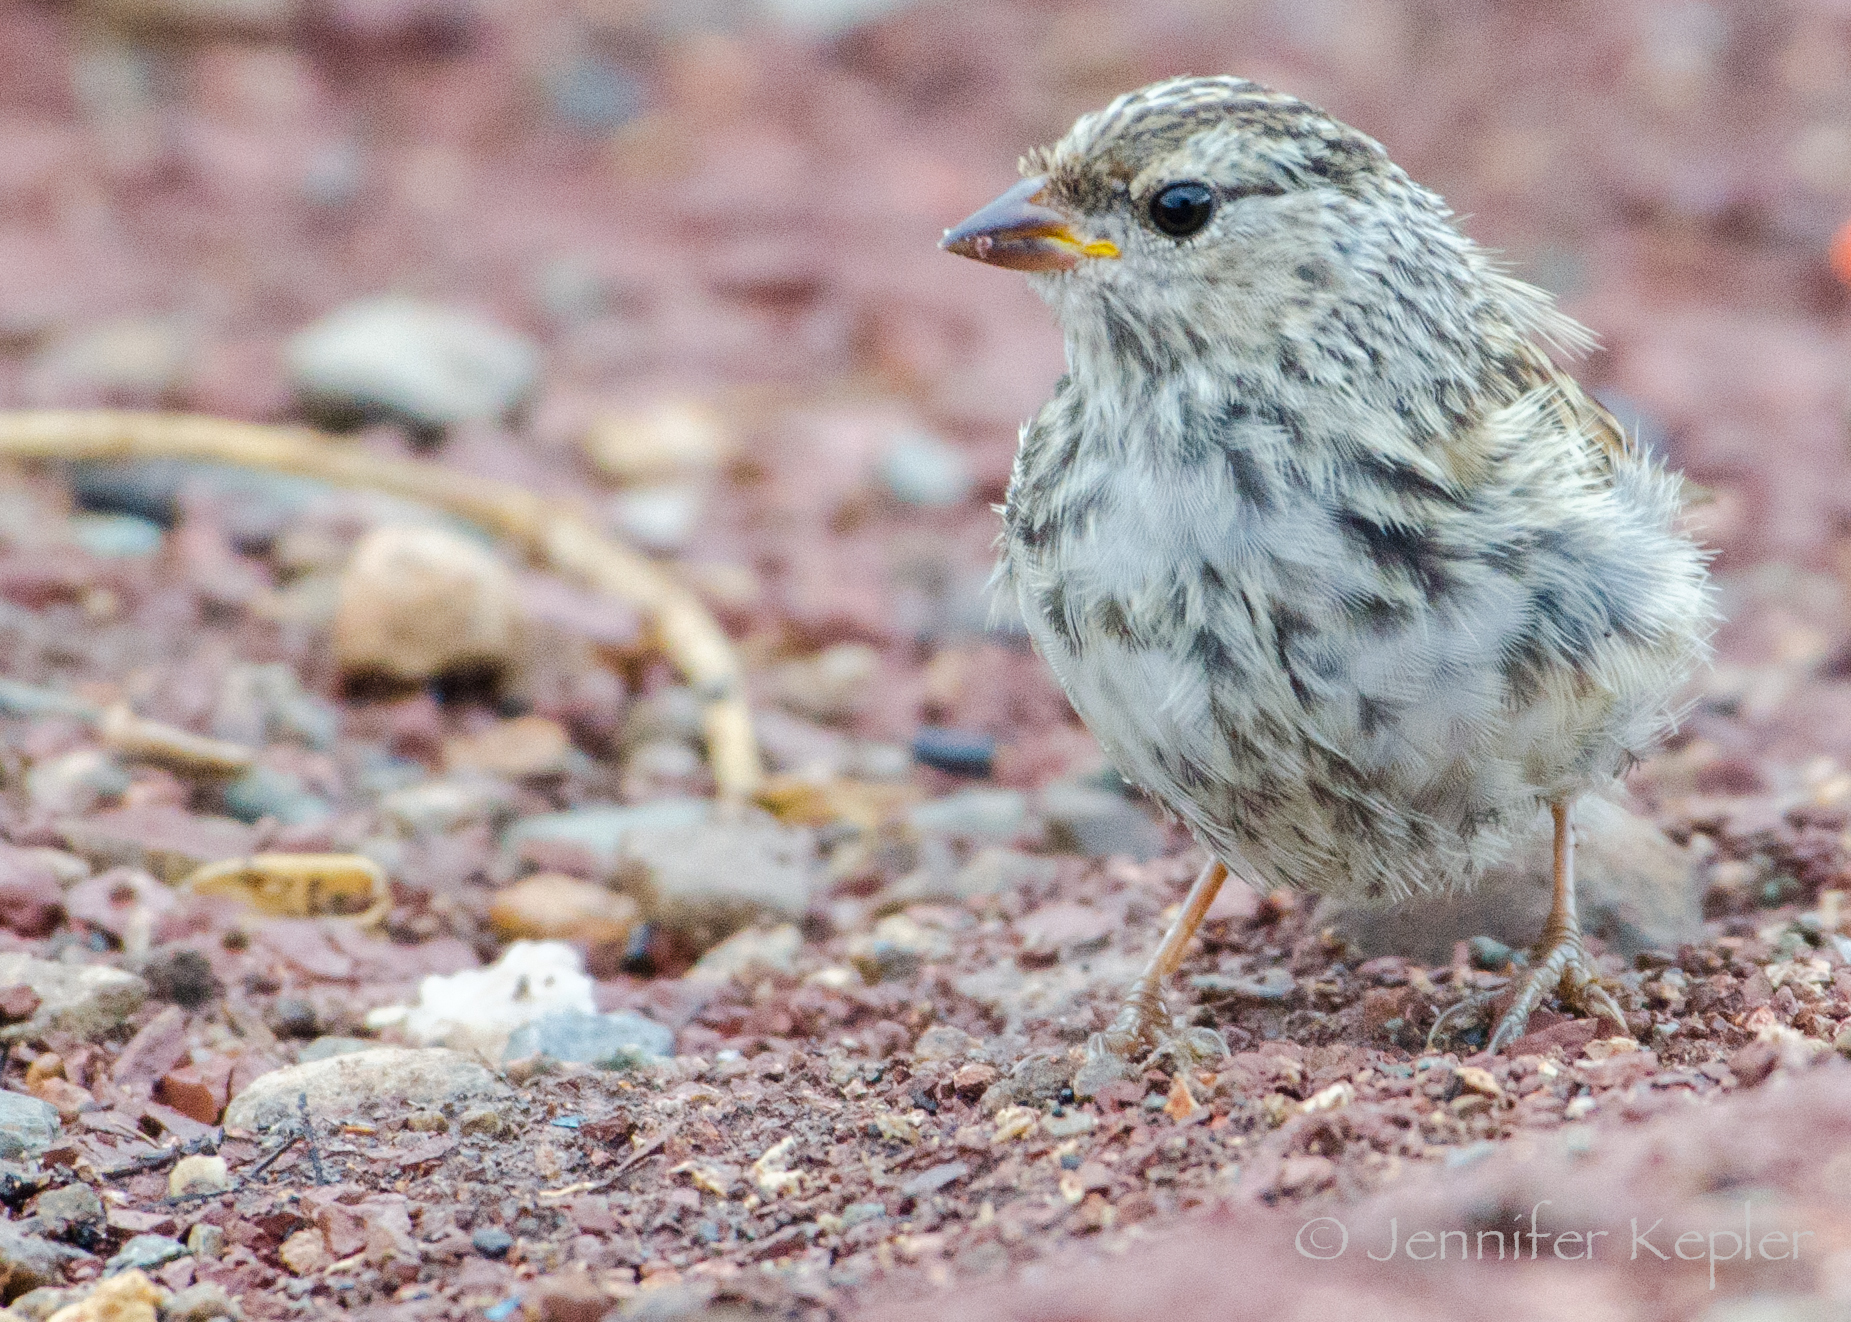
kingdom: Animalia
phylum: Chordata
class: Aves
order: Passeriformes
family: Passerellidae
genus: Zonotrichia
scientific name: Zonotrichia leucophrys
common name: White-crowned sparrow
